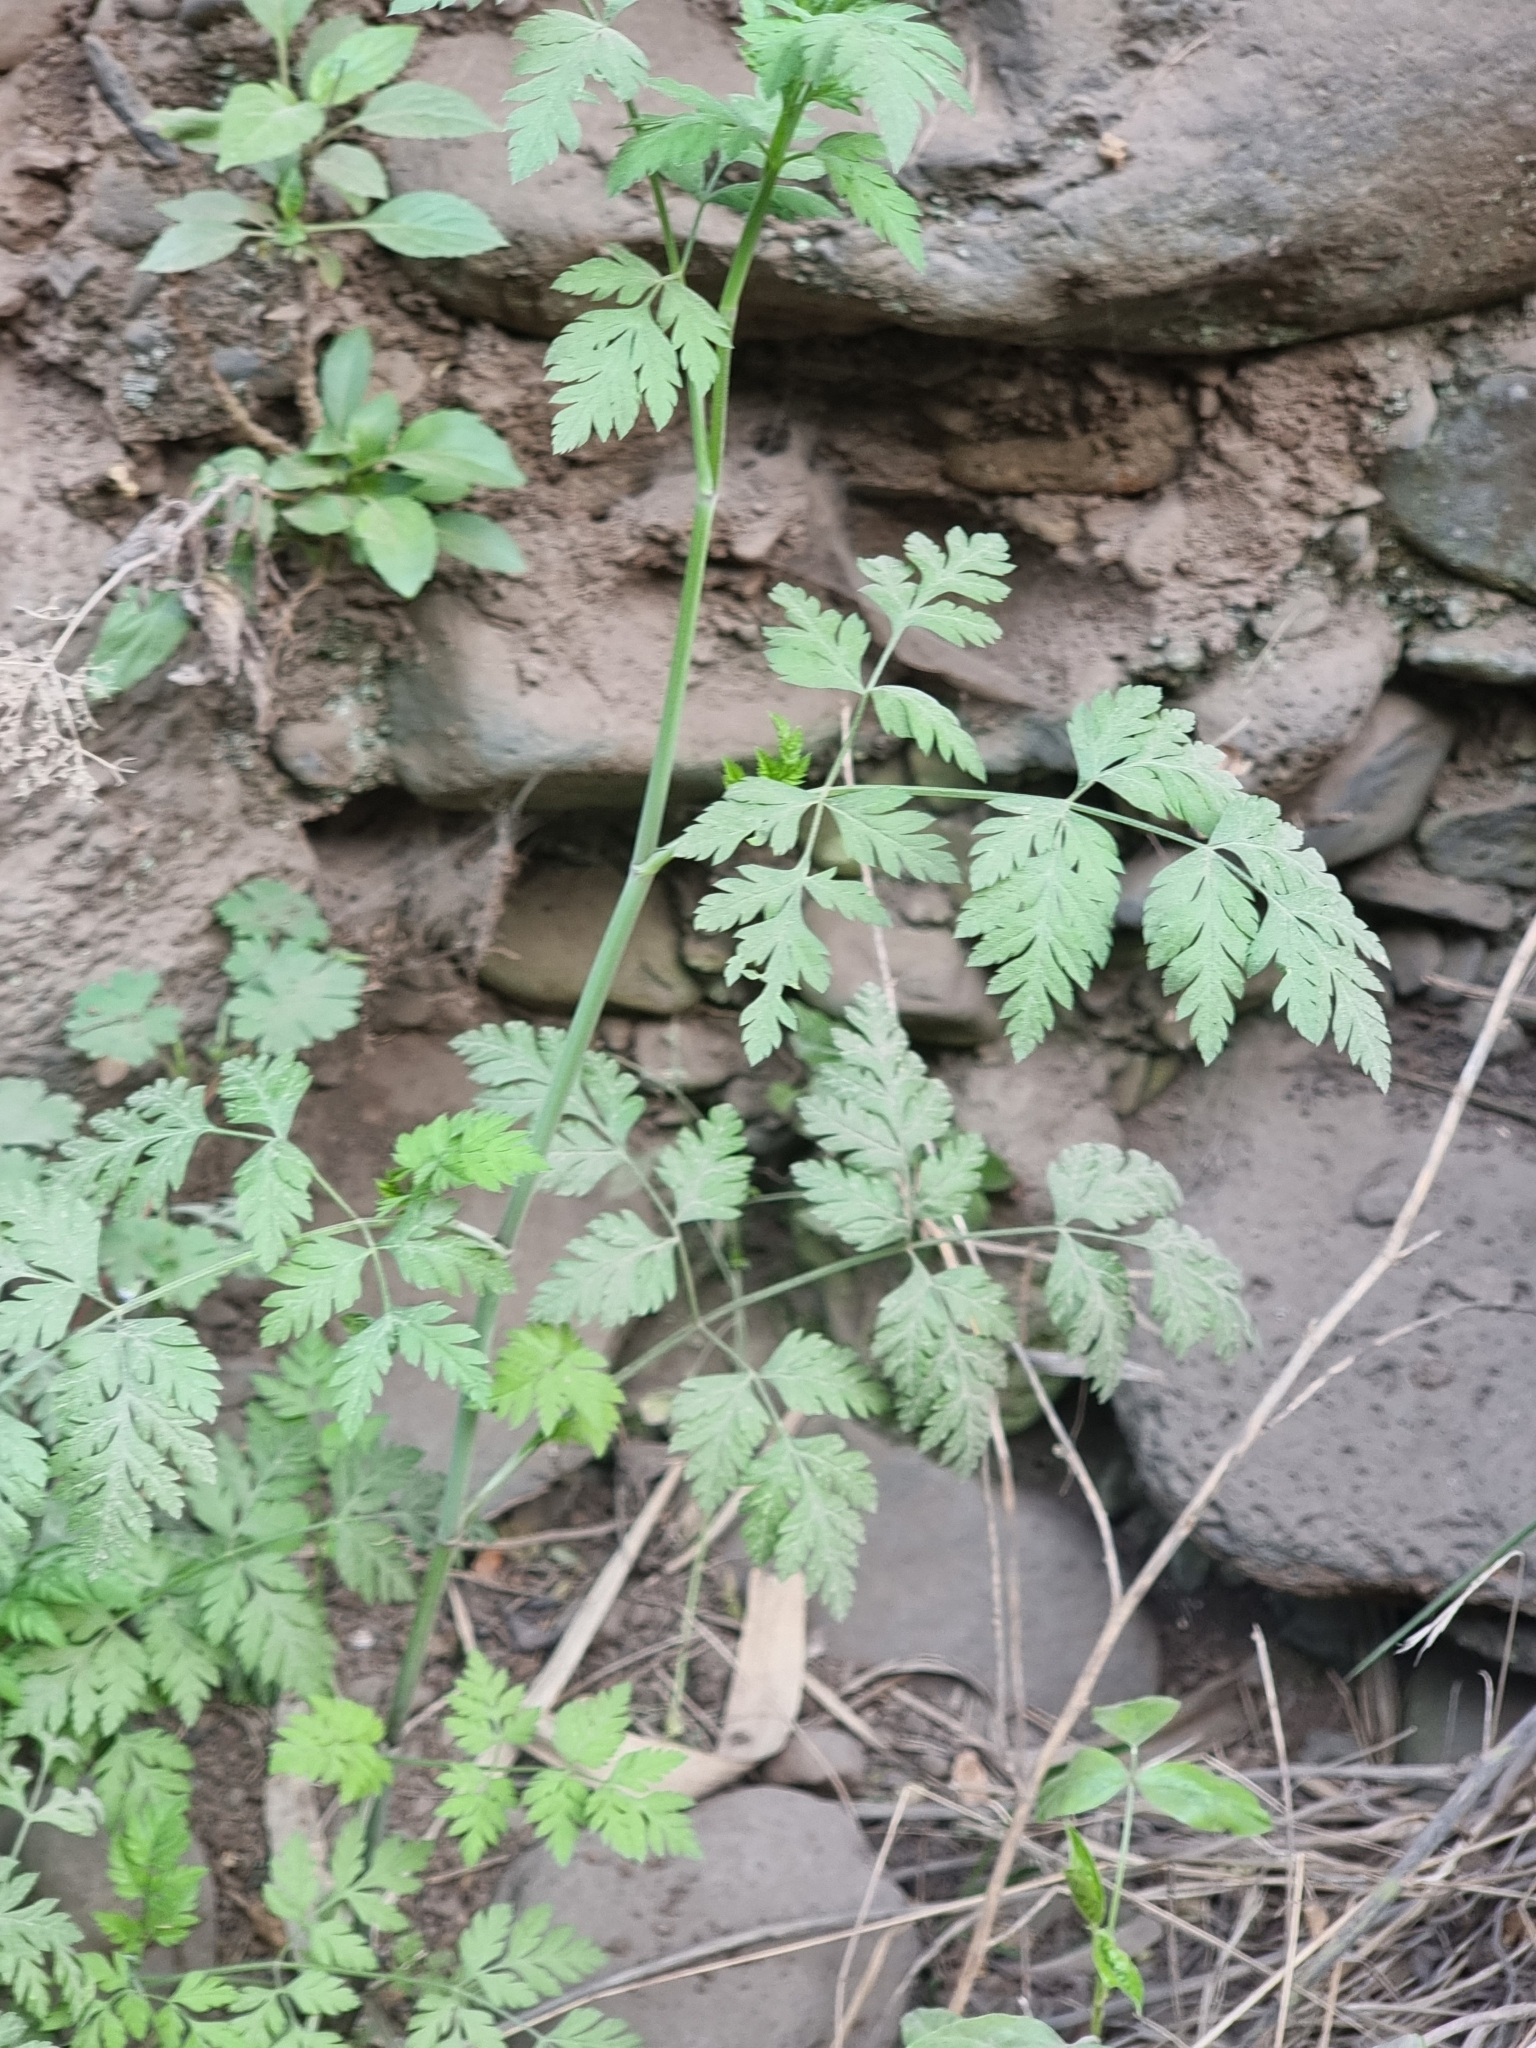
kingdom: Plantae
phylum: Tracheophyta
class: Magnoliopsida
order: Apiales
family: Apiaceae
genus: Oenanthe
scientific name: Oenanthe divaricata
